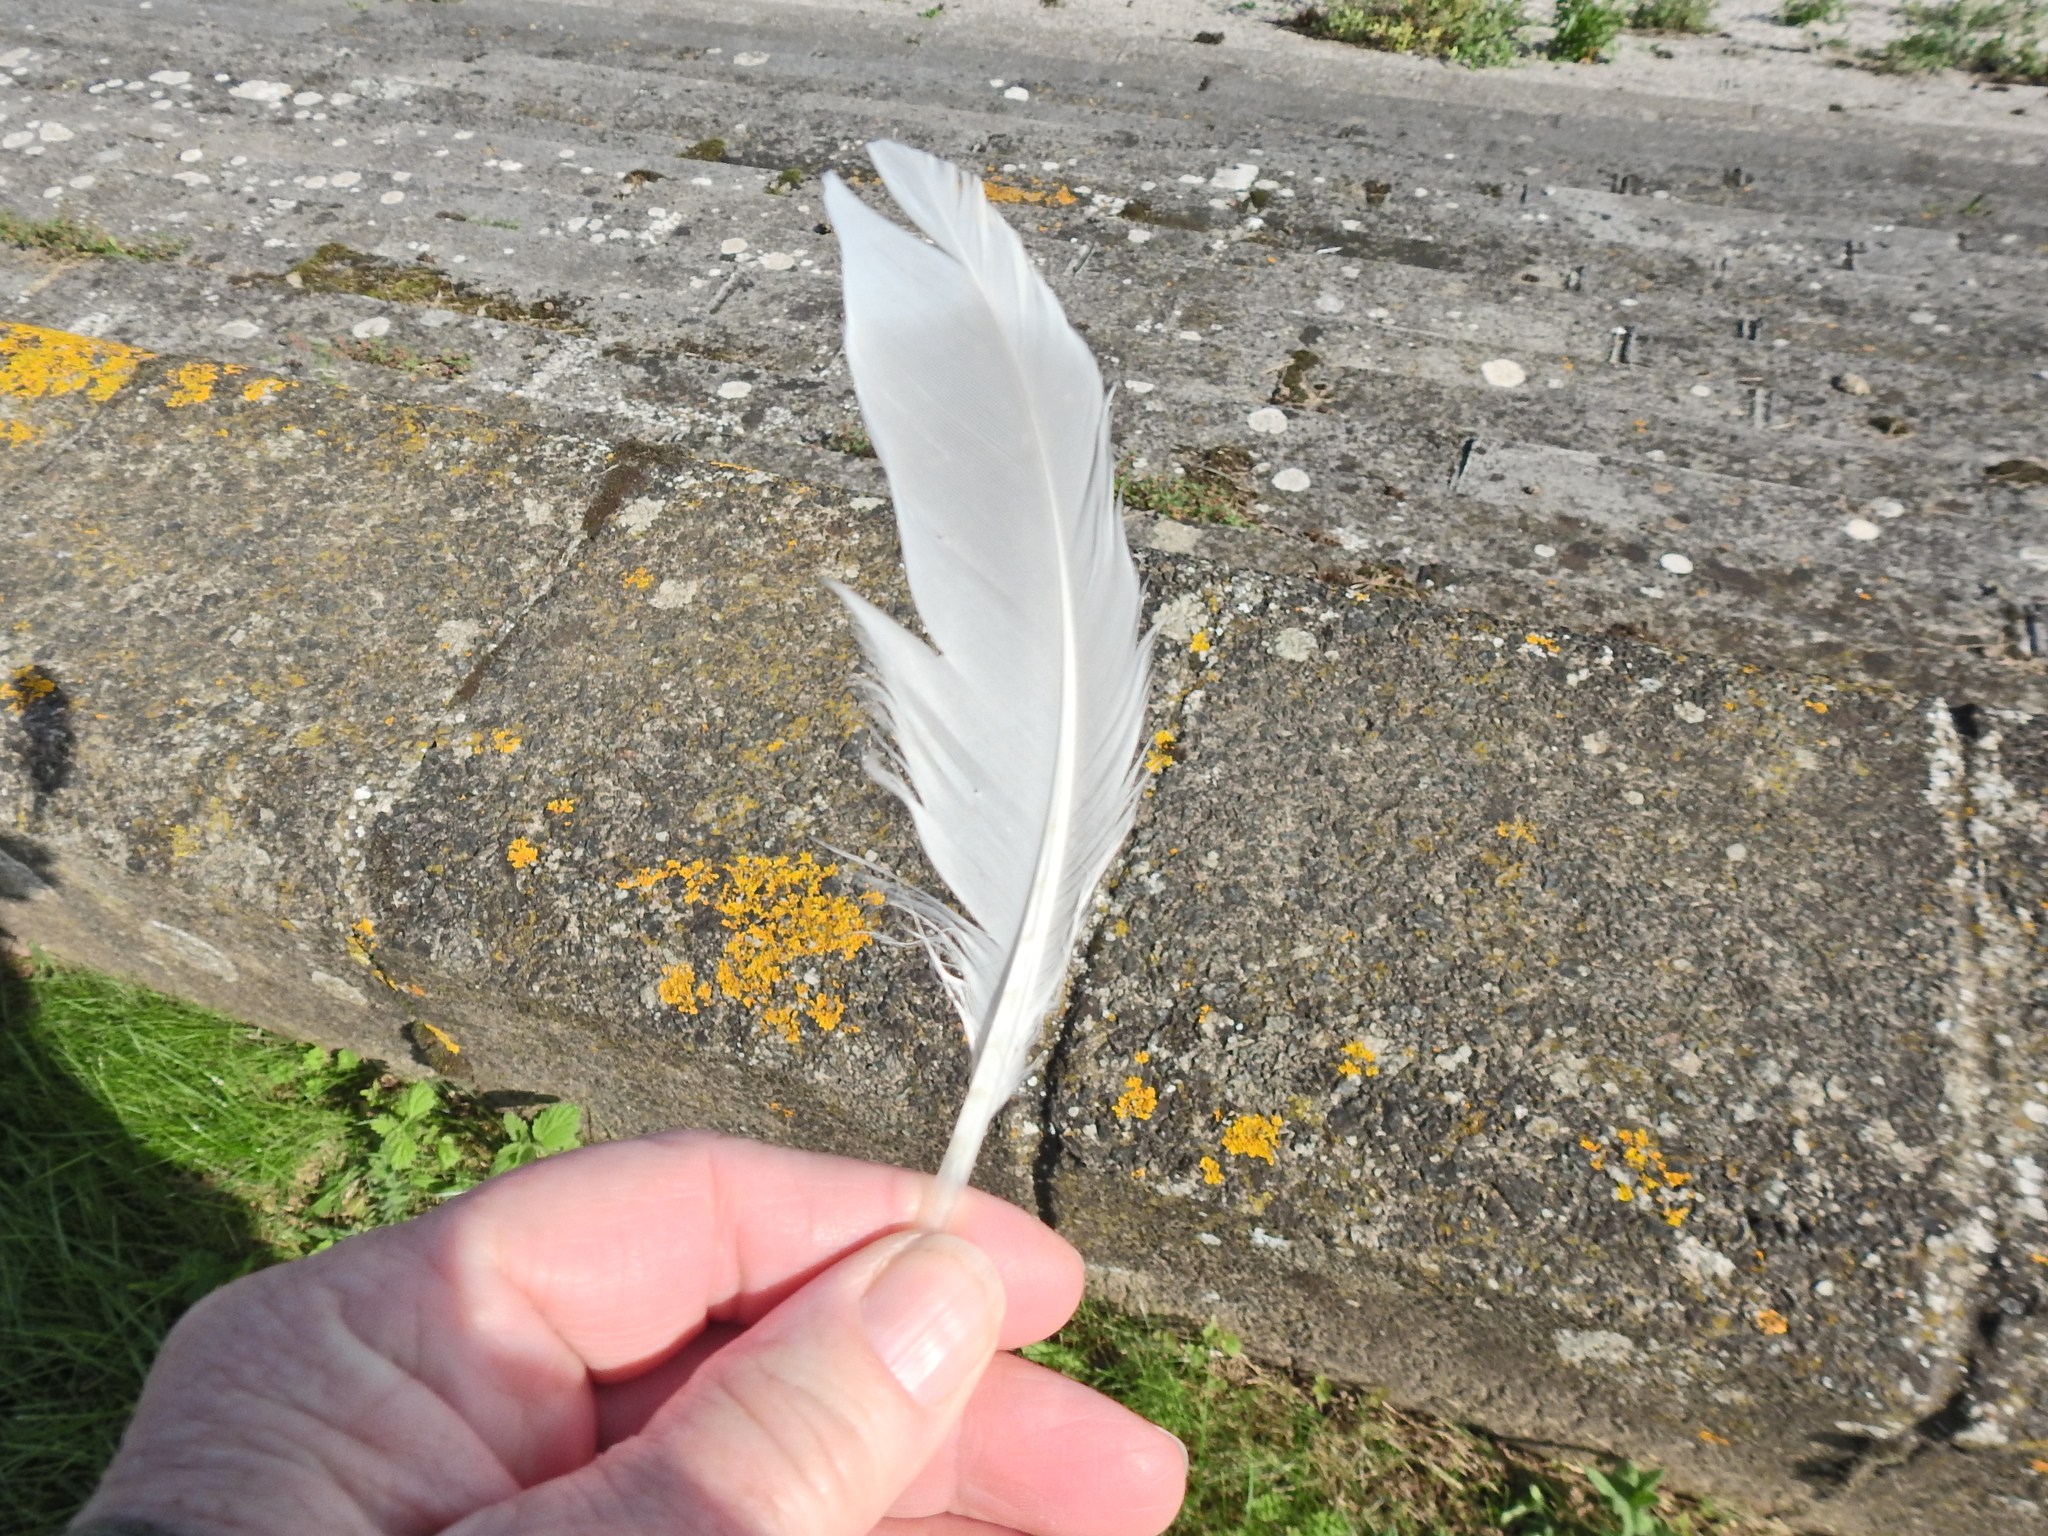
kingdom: Animalia
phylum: Chordata
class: Aves
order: Charadriiformes
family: Laridae
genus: Larus
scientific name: Larus argentatus
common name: Herring gull
